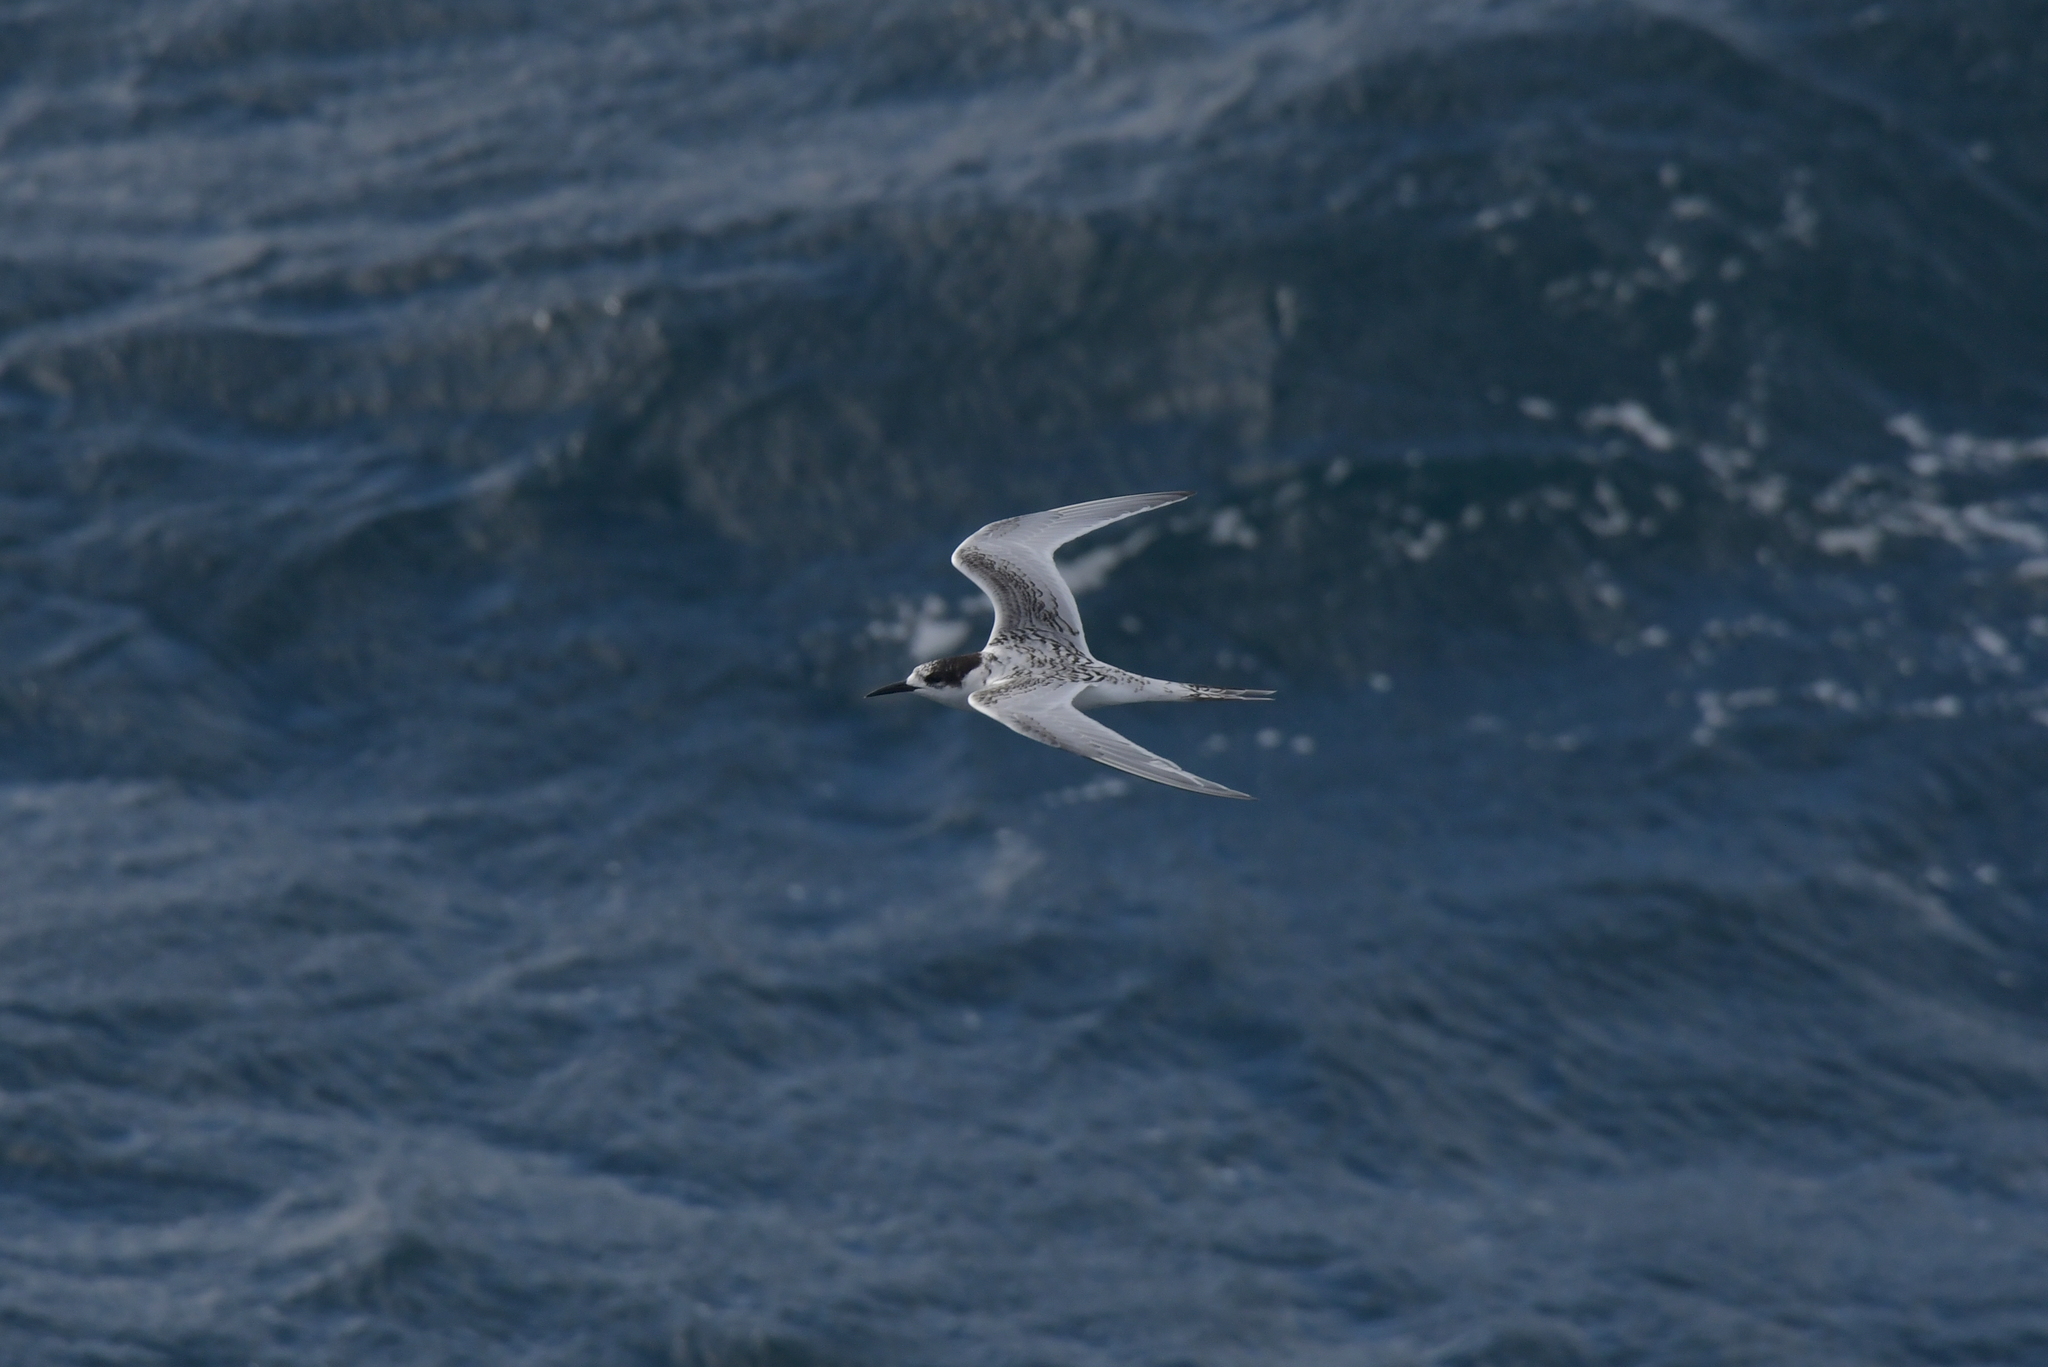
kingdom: Animalia
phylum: Chordata
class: Aves
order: Charadriiformes
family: Laridae
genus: Sterna
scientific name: Sterna striata
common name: White-fronted tern
